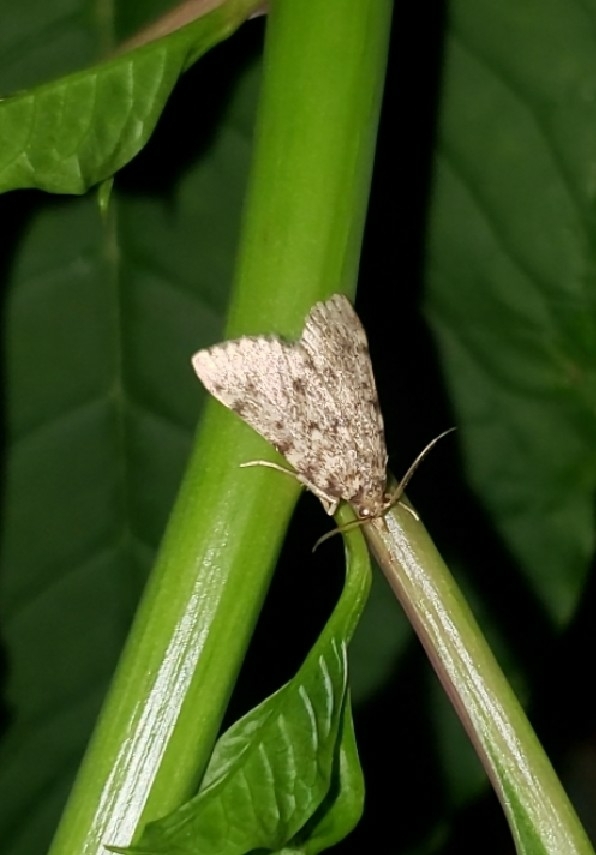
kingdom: Animalia
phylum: Arthropoda
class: Insecta
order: Lepidoptera
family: Pyralidae
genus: Aglossa
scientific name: Aglossa pinguinalis
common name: Large tabby
